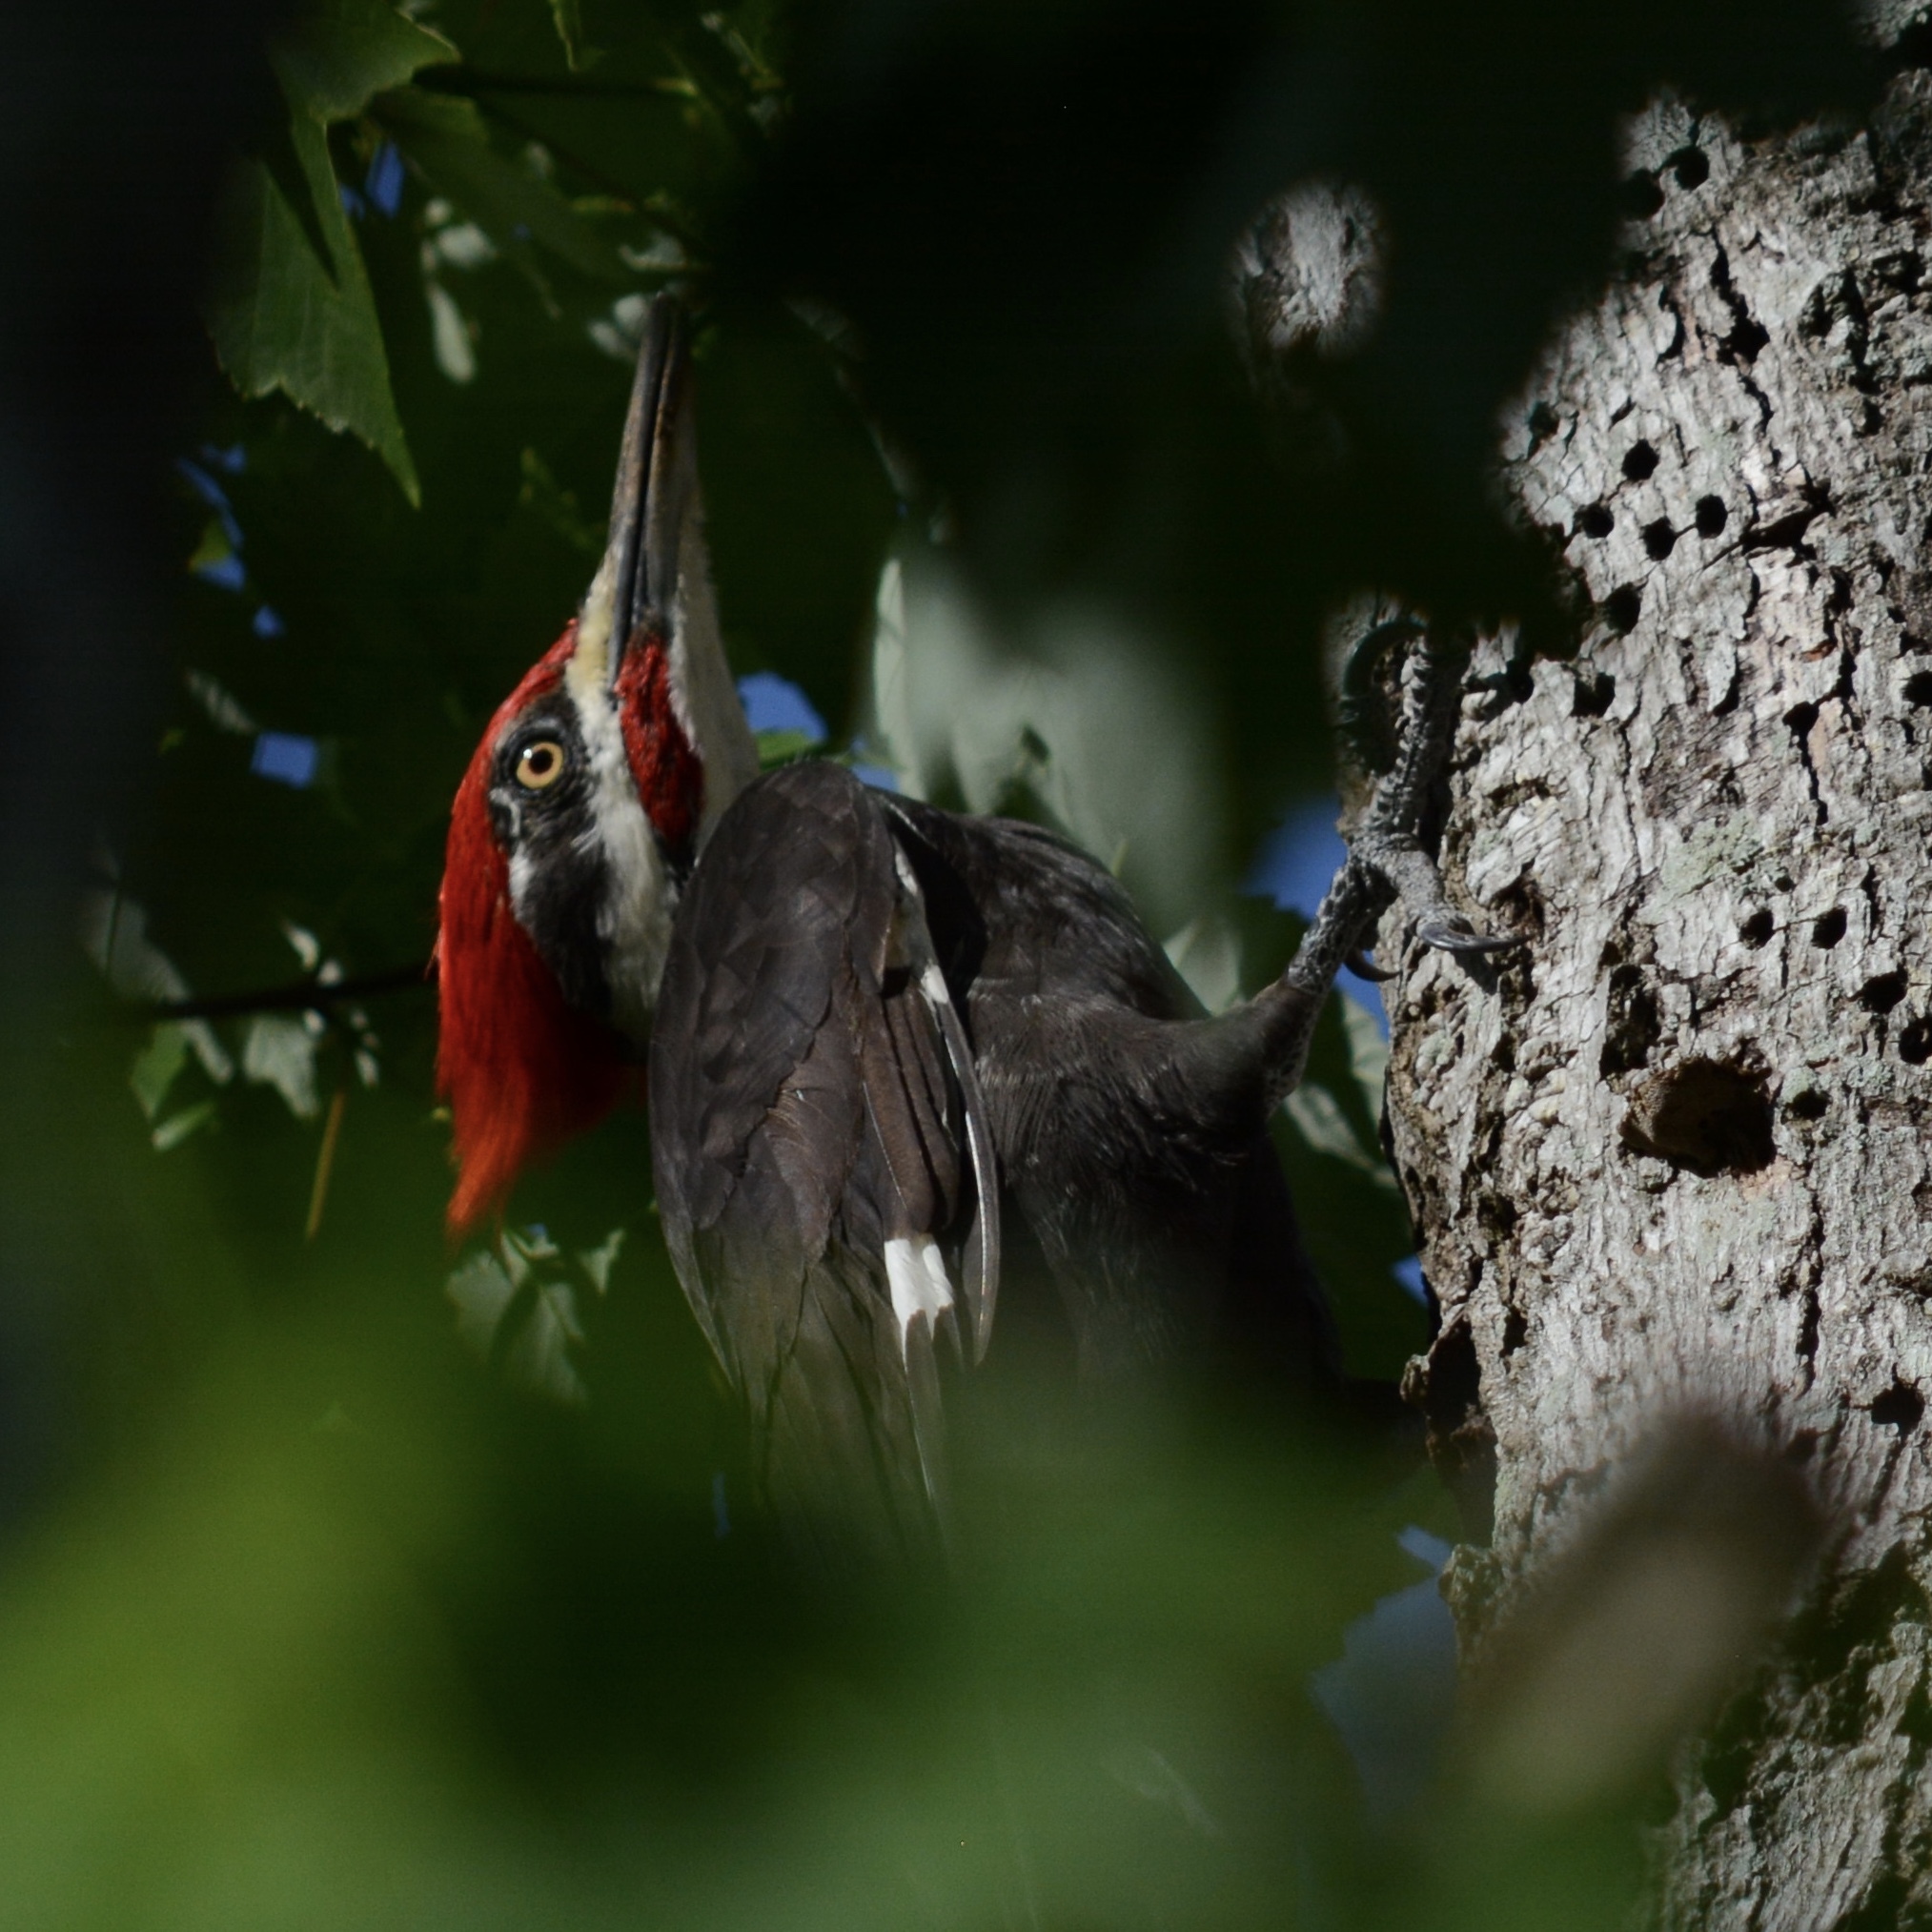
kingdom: Animalia
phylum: Chordata
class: Aves
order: Piciformes
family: Picidae
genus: Dryocopus
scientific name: Dryocopus pileatus
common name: Pileated woodpecker
